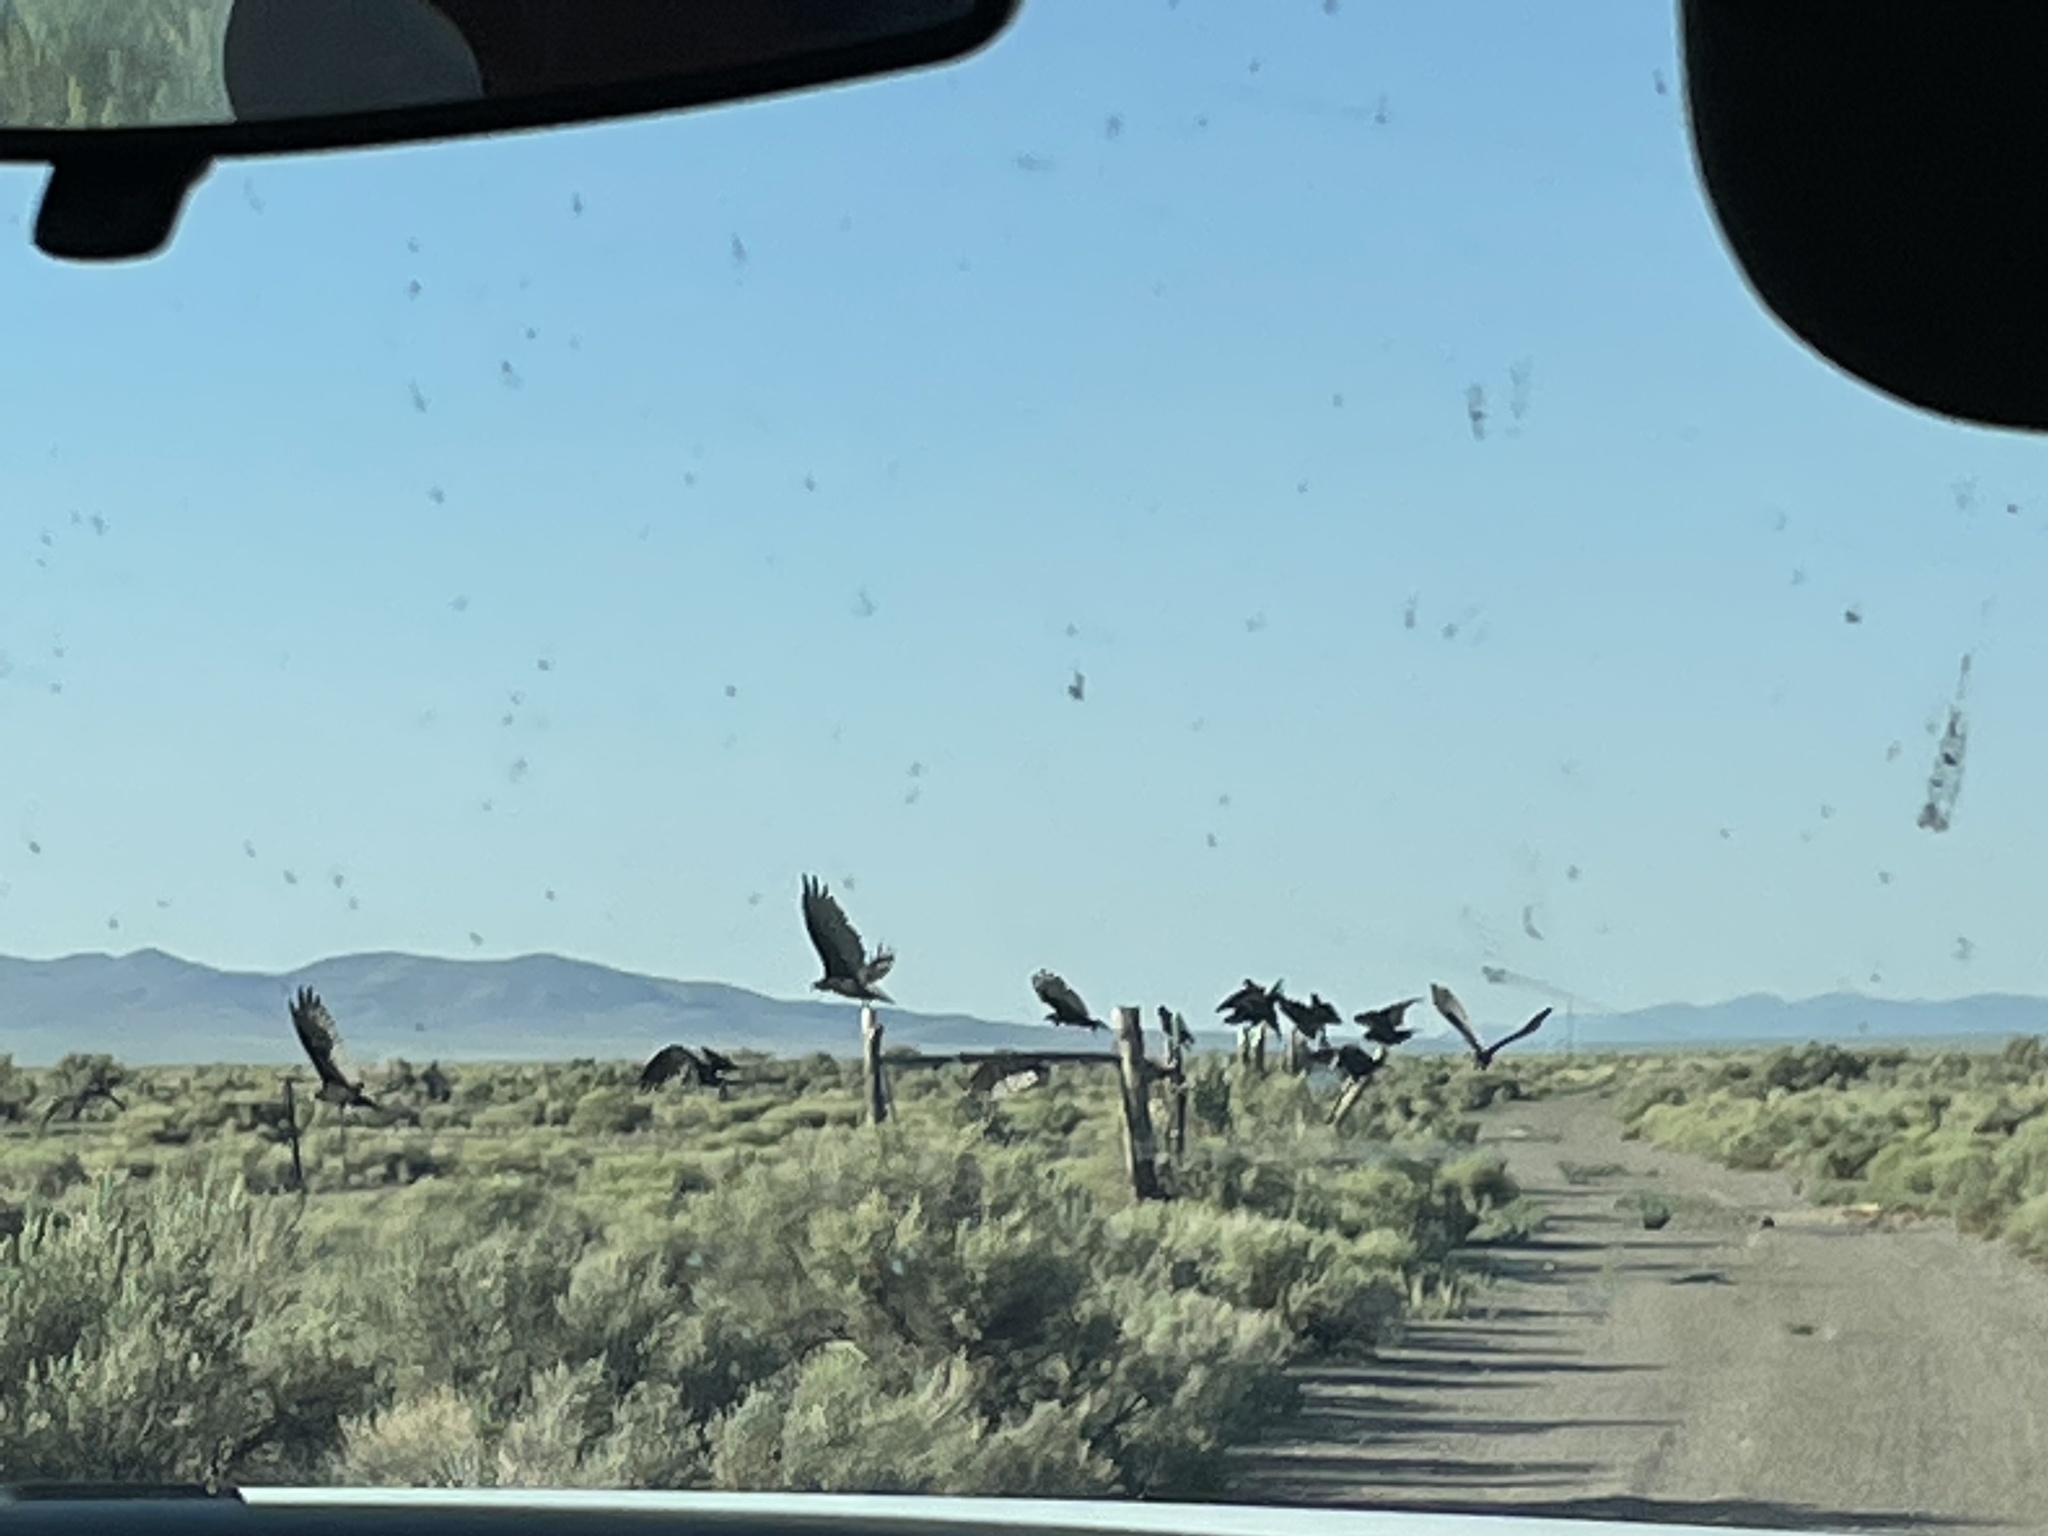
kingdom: Animalia
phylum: Chordata
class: Aves
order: Accipitriformes
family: Cathartidae
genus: Cathartes
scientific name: Cathartes aura
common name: Turkey vulture
